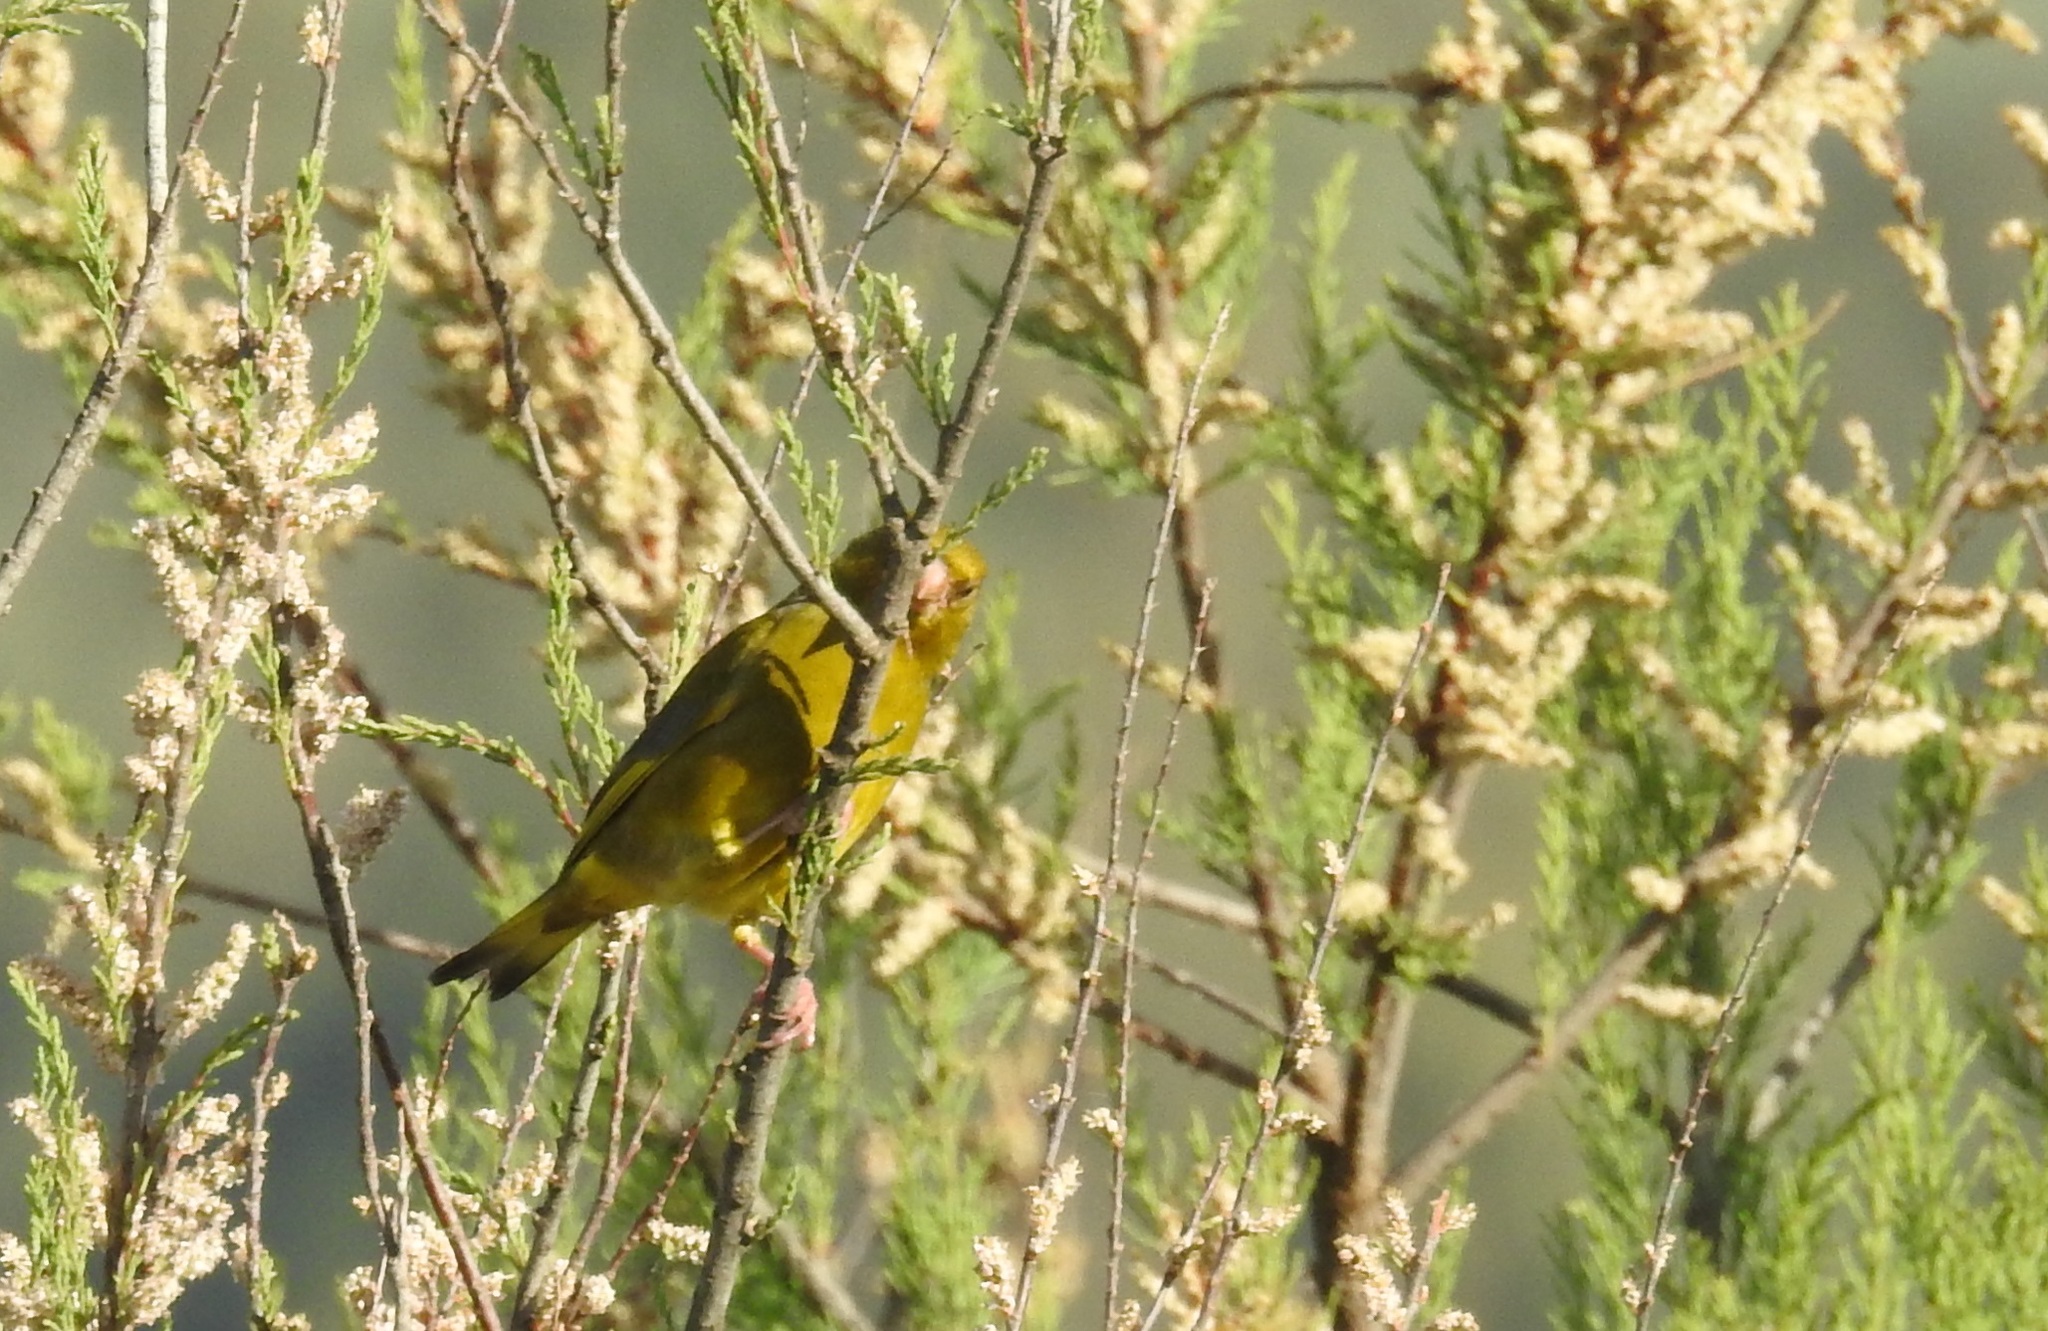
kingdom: Plantae
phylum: Tracheophyta
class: Liliopsida
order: Poales
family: Poaceae
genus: Chloris
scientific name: Chloris chloris
